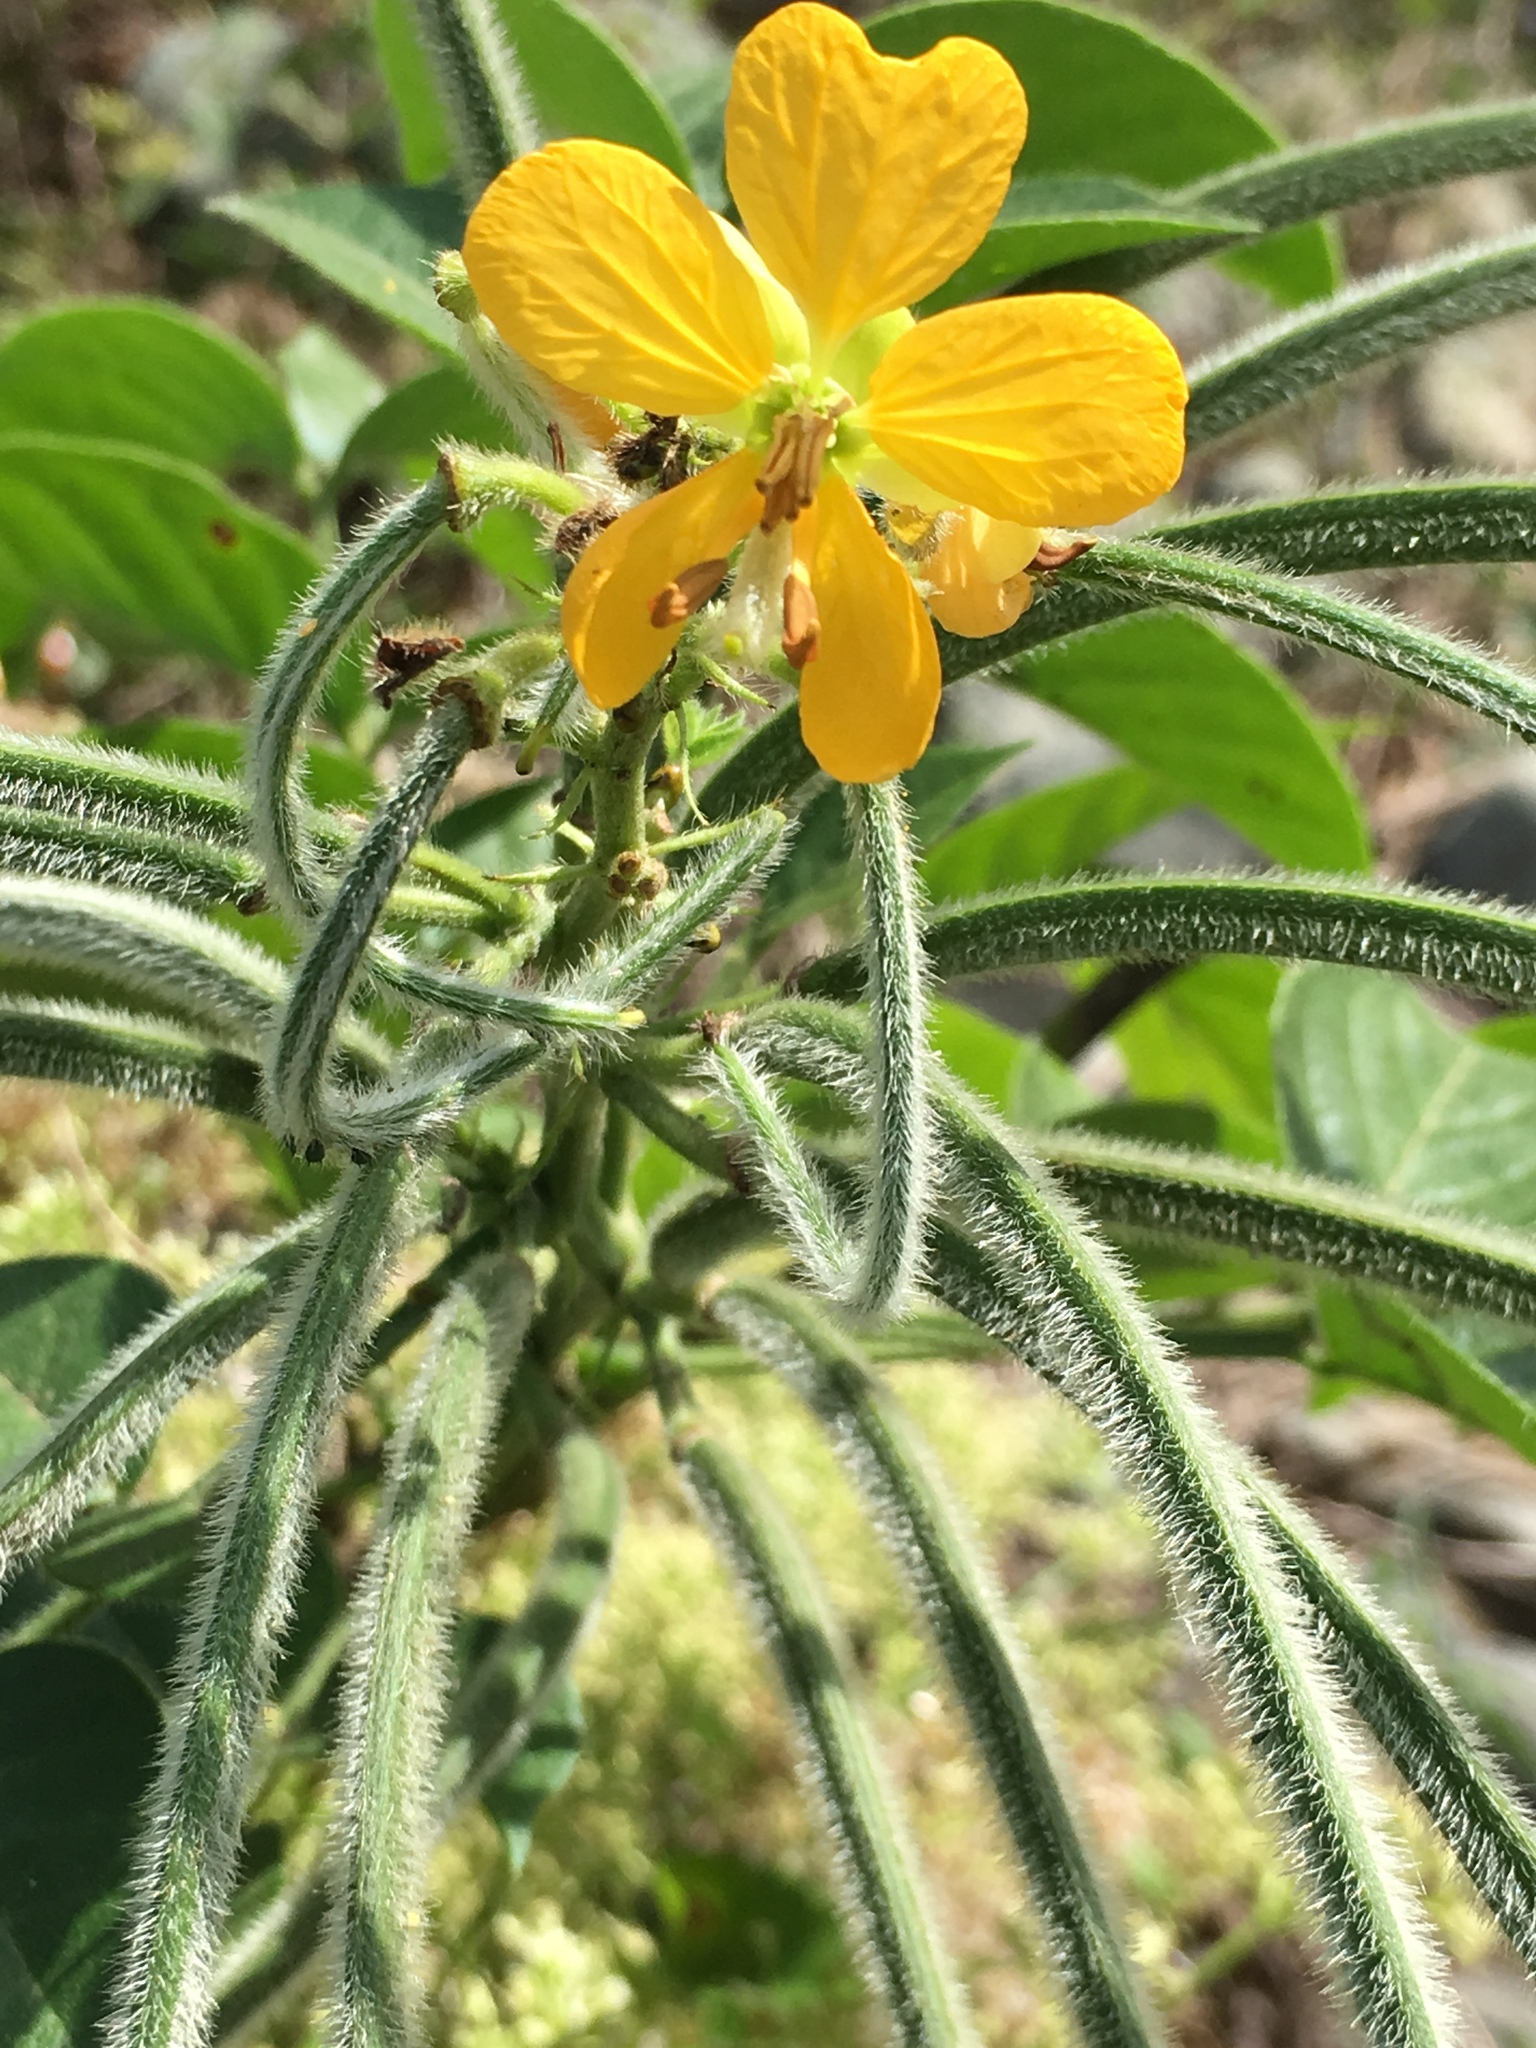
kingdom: Plantae
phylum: Tracheophyta
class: Magnoliopsida
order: Fabales
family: Fabaceae
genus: Senna
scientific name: Senna hirsuta
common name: Woolly senna
